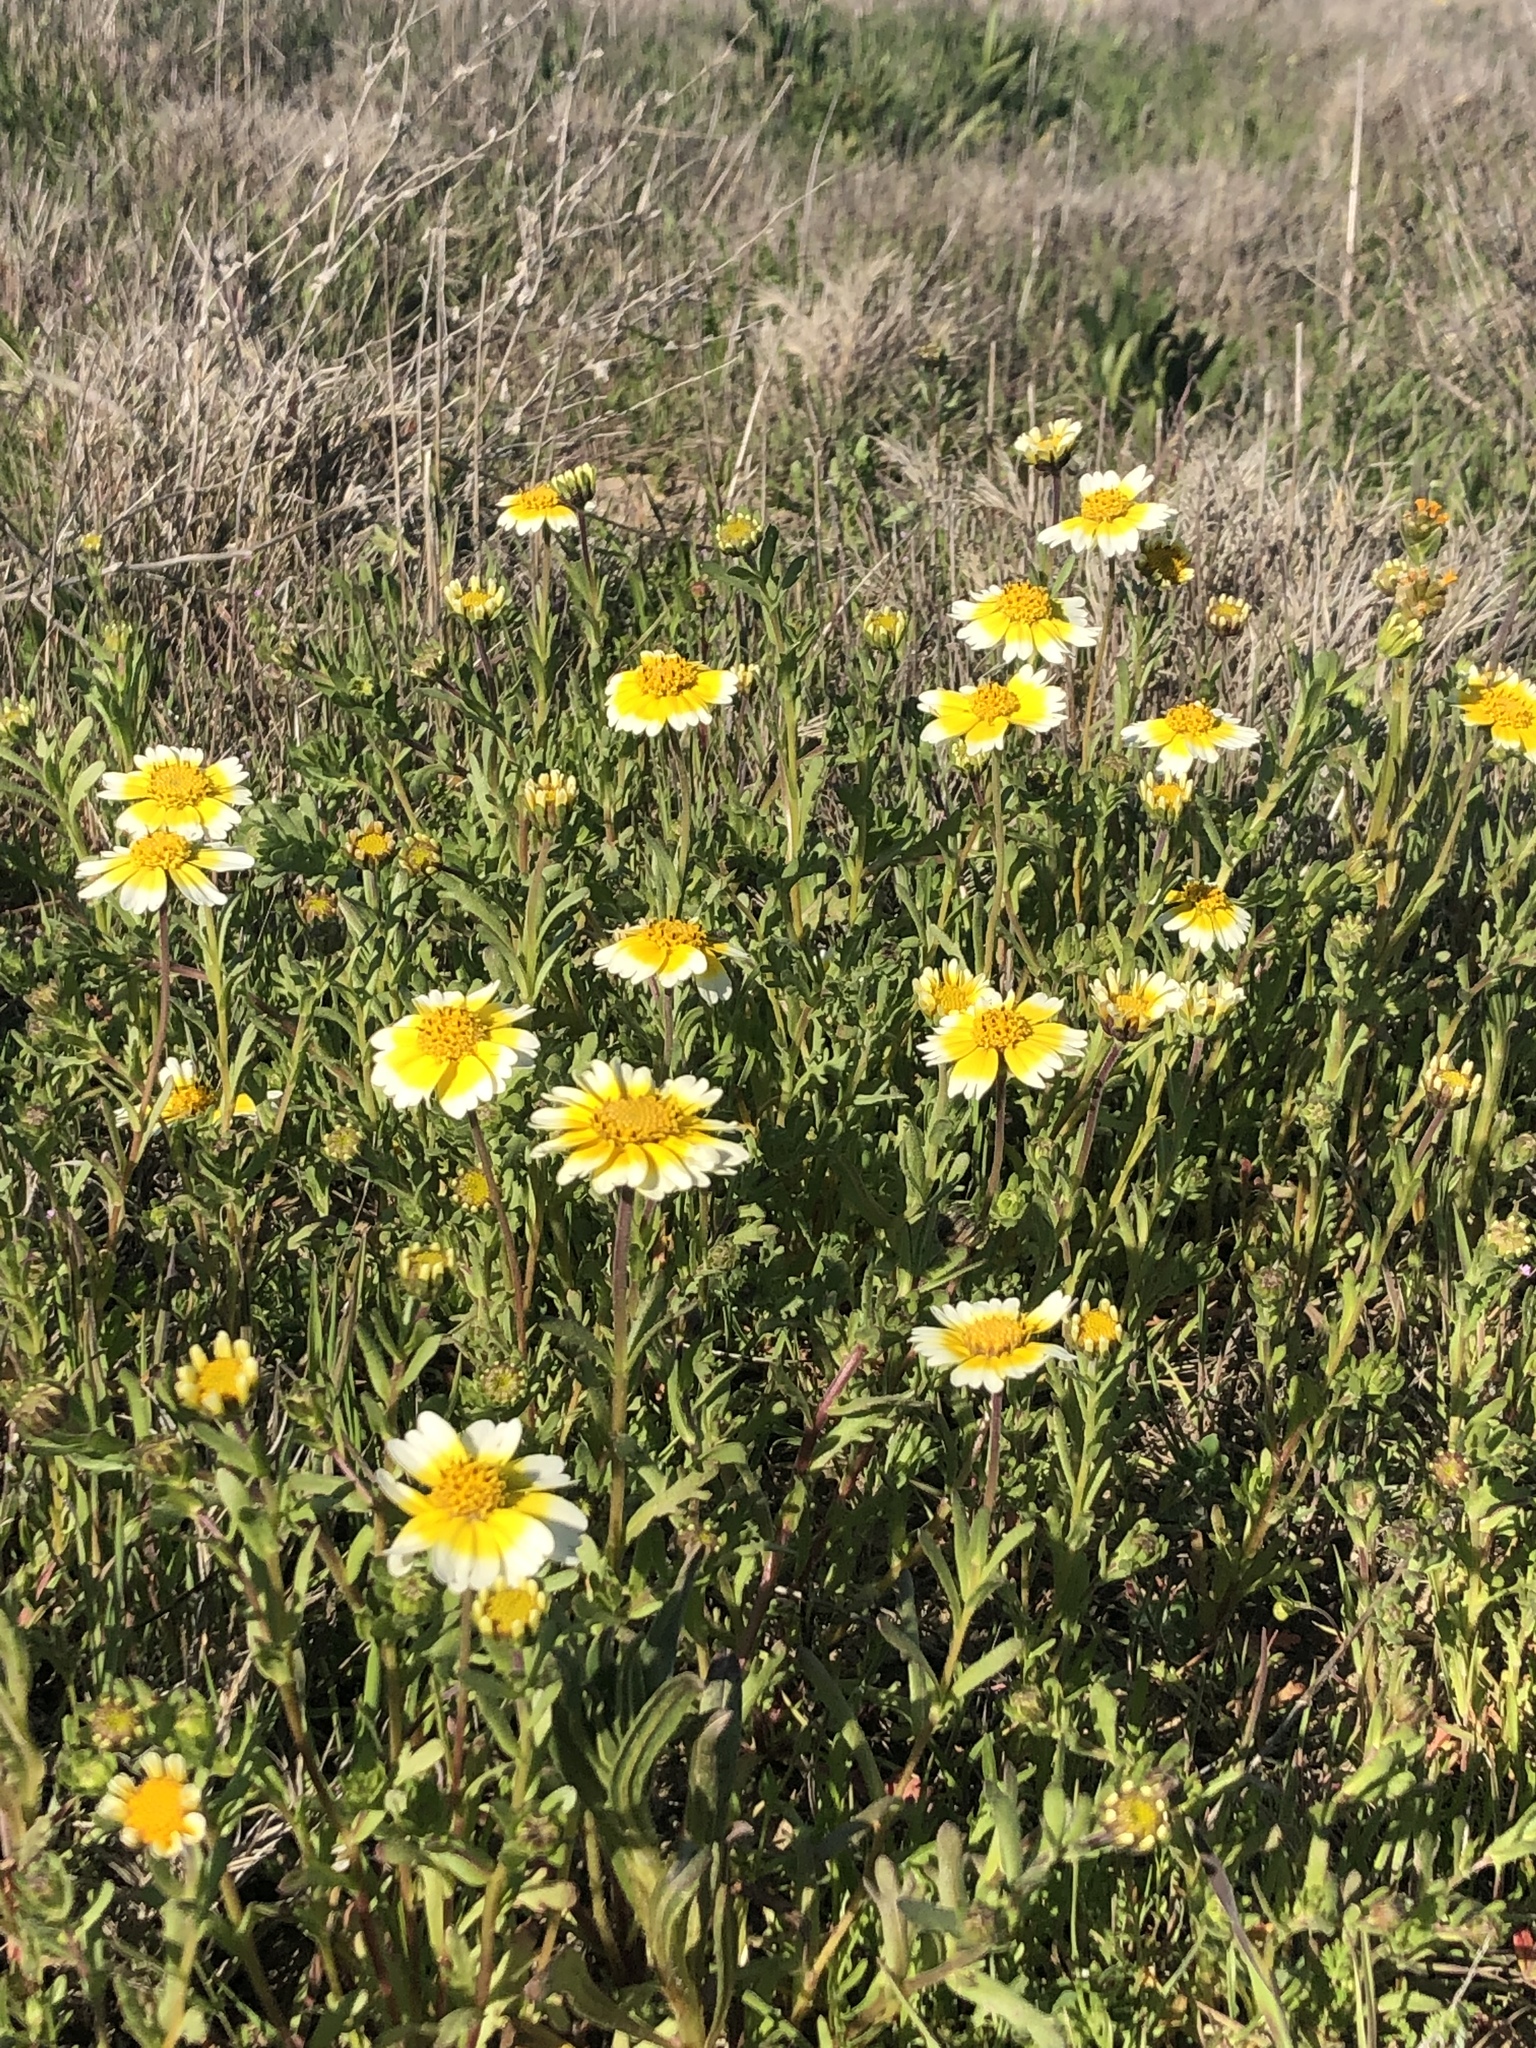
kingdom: Plantae
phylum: Tracheophyta
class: Magnoliopsida
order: Asterales
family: Asteraceae
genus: Layia
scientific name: Layia munzii
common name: Munz's tidy-tips
